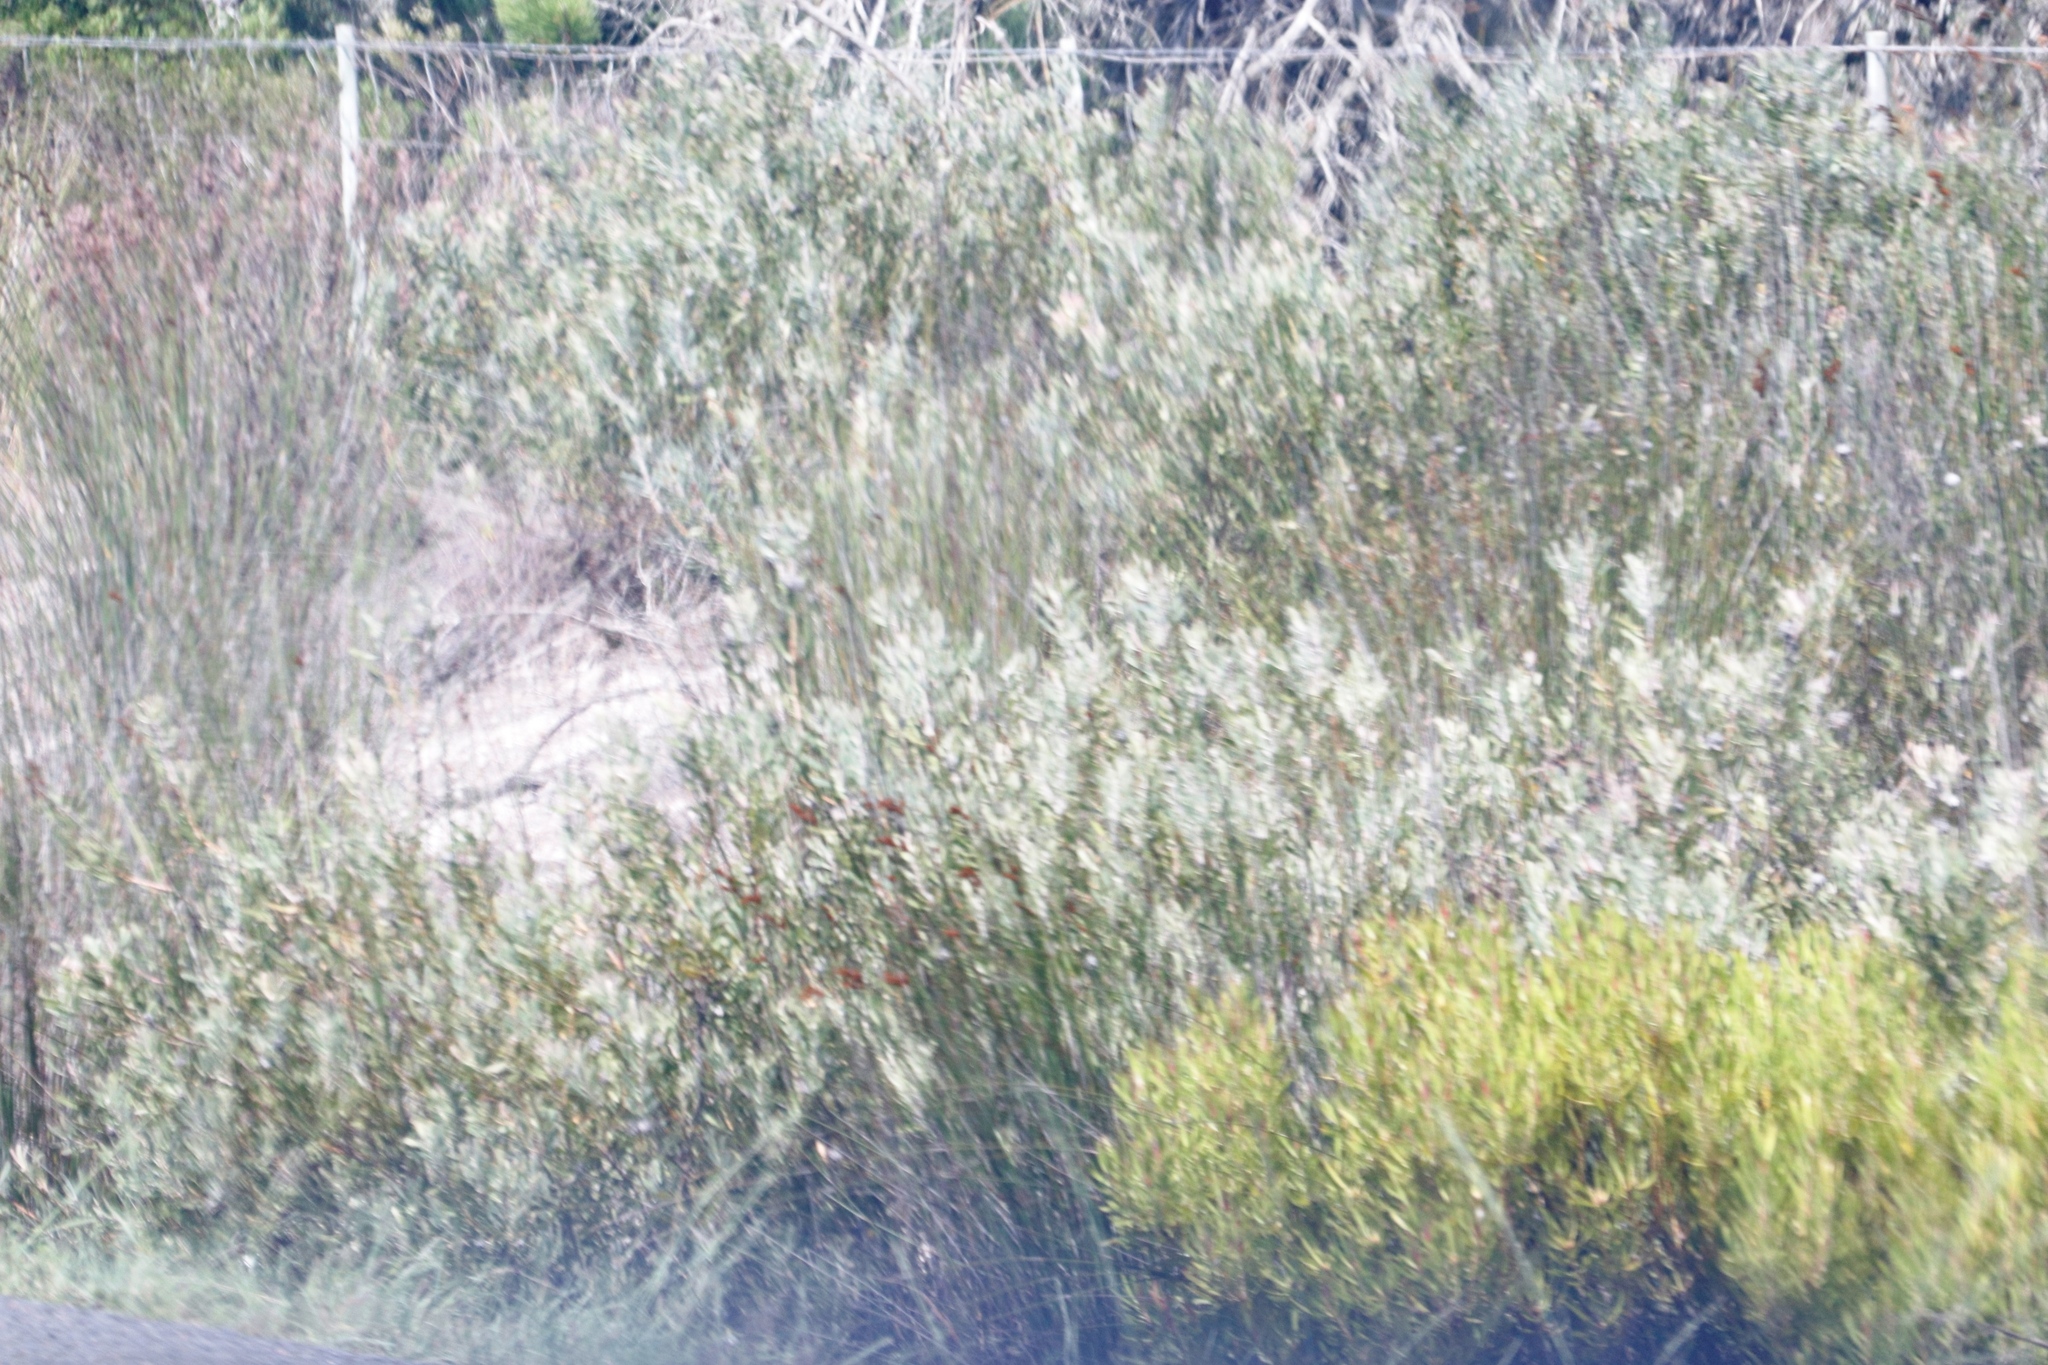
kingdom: Plantae
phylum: Tracheophyta
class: Magnoliopsida
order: Proteales
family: Proteaceae
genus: Leucospermum
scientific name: Leucospermum praecox
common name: Mossel bay pincushion
